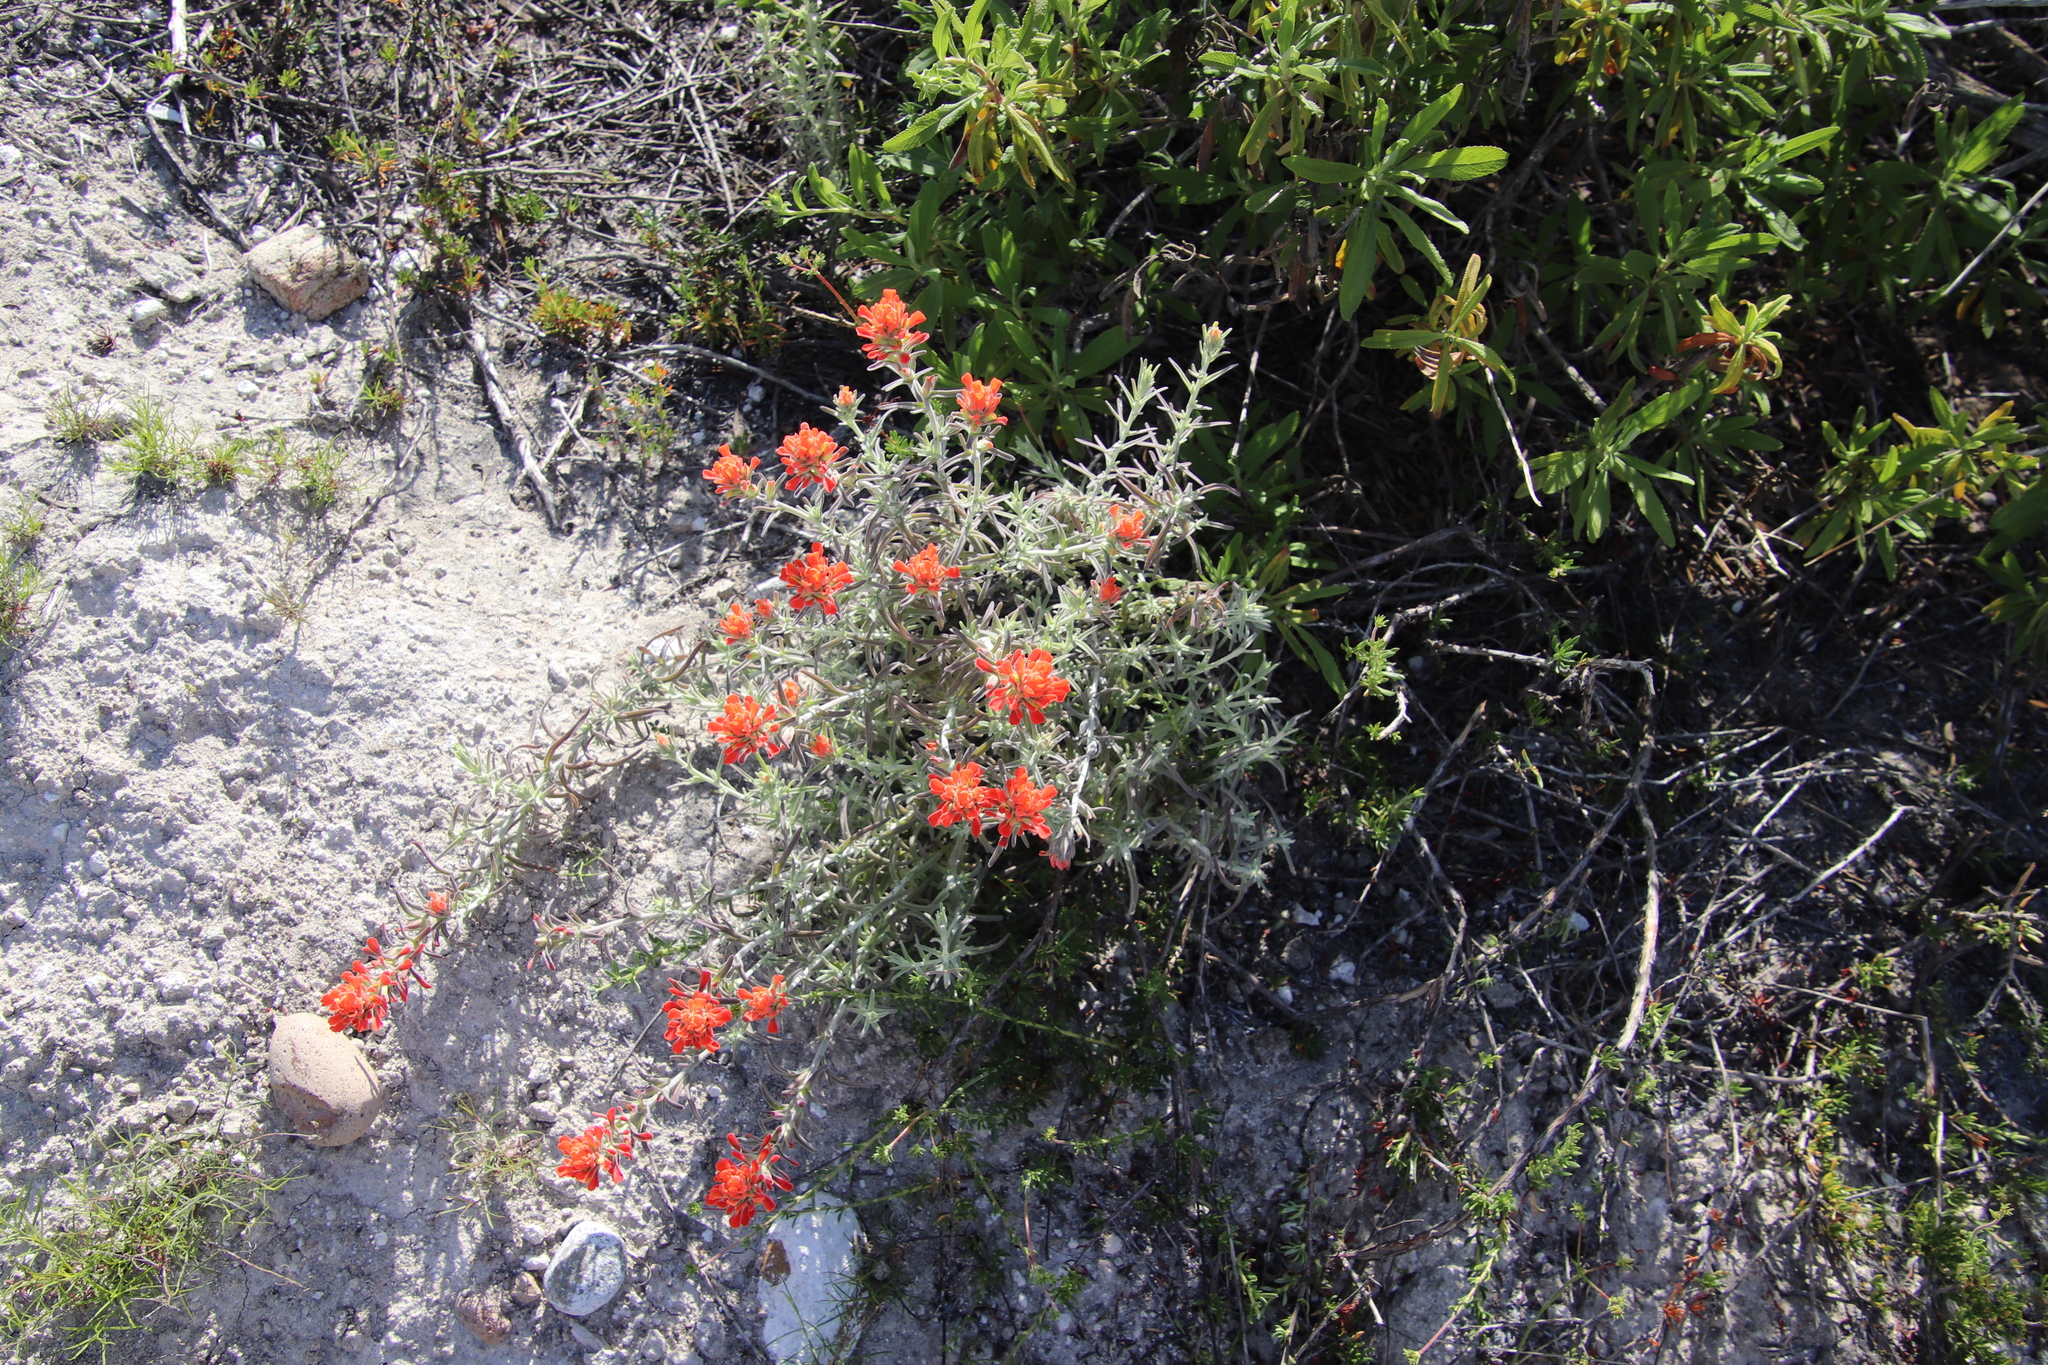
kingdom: Plantae
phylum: Tracheophyta
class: Magnoliopsida
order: Lamiales
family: Orobanchaceae
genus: Castilleja
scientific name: Castilleja foliolosa
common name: Woolly indian paintbrush
